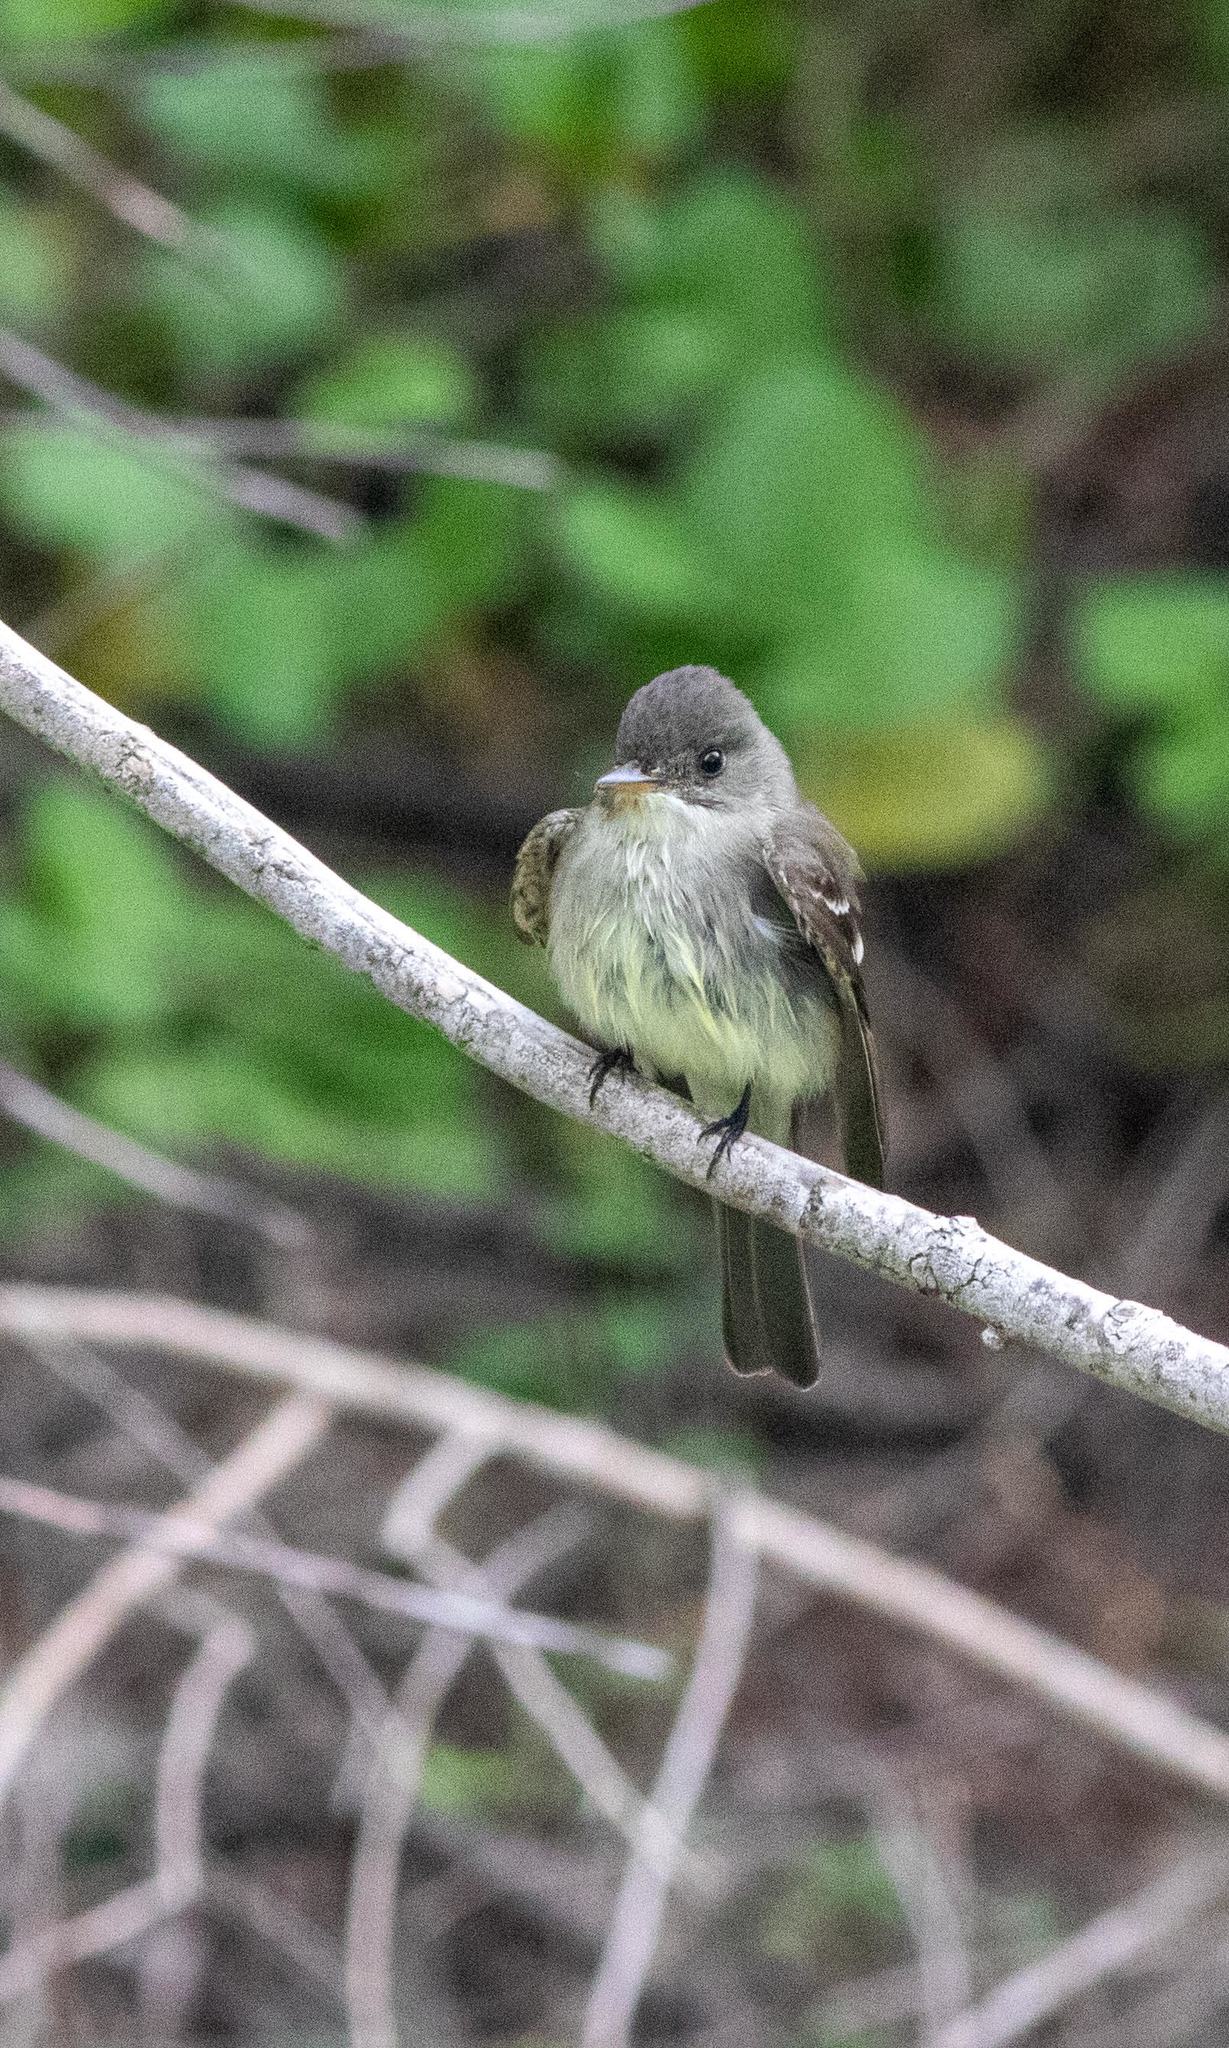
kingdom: Animalia
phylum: Chordata
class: Aves
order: Passeriformes
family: Tyrannidae
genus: Contopus
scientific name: Contopus virens
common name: Eastern wood-pewee
